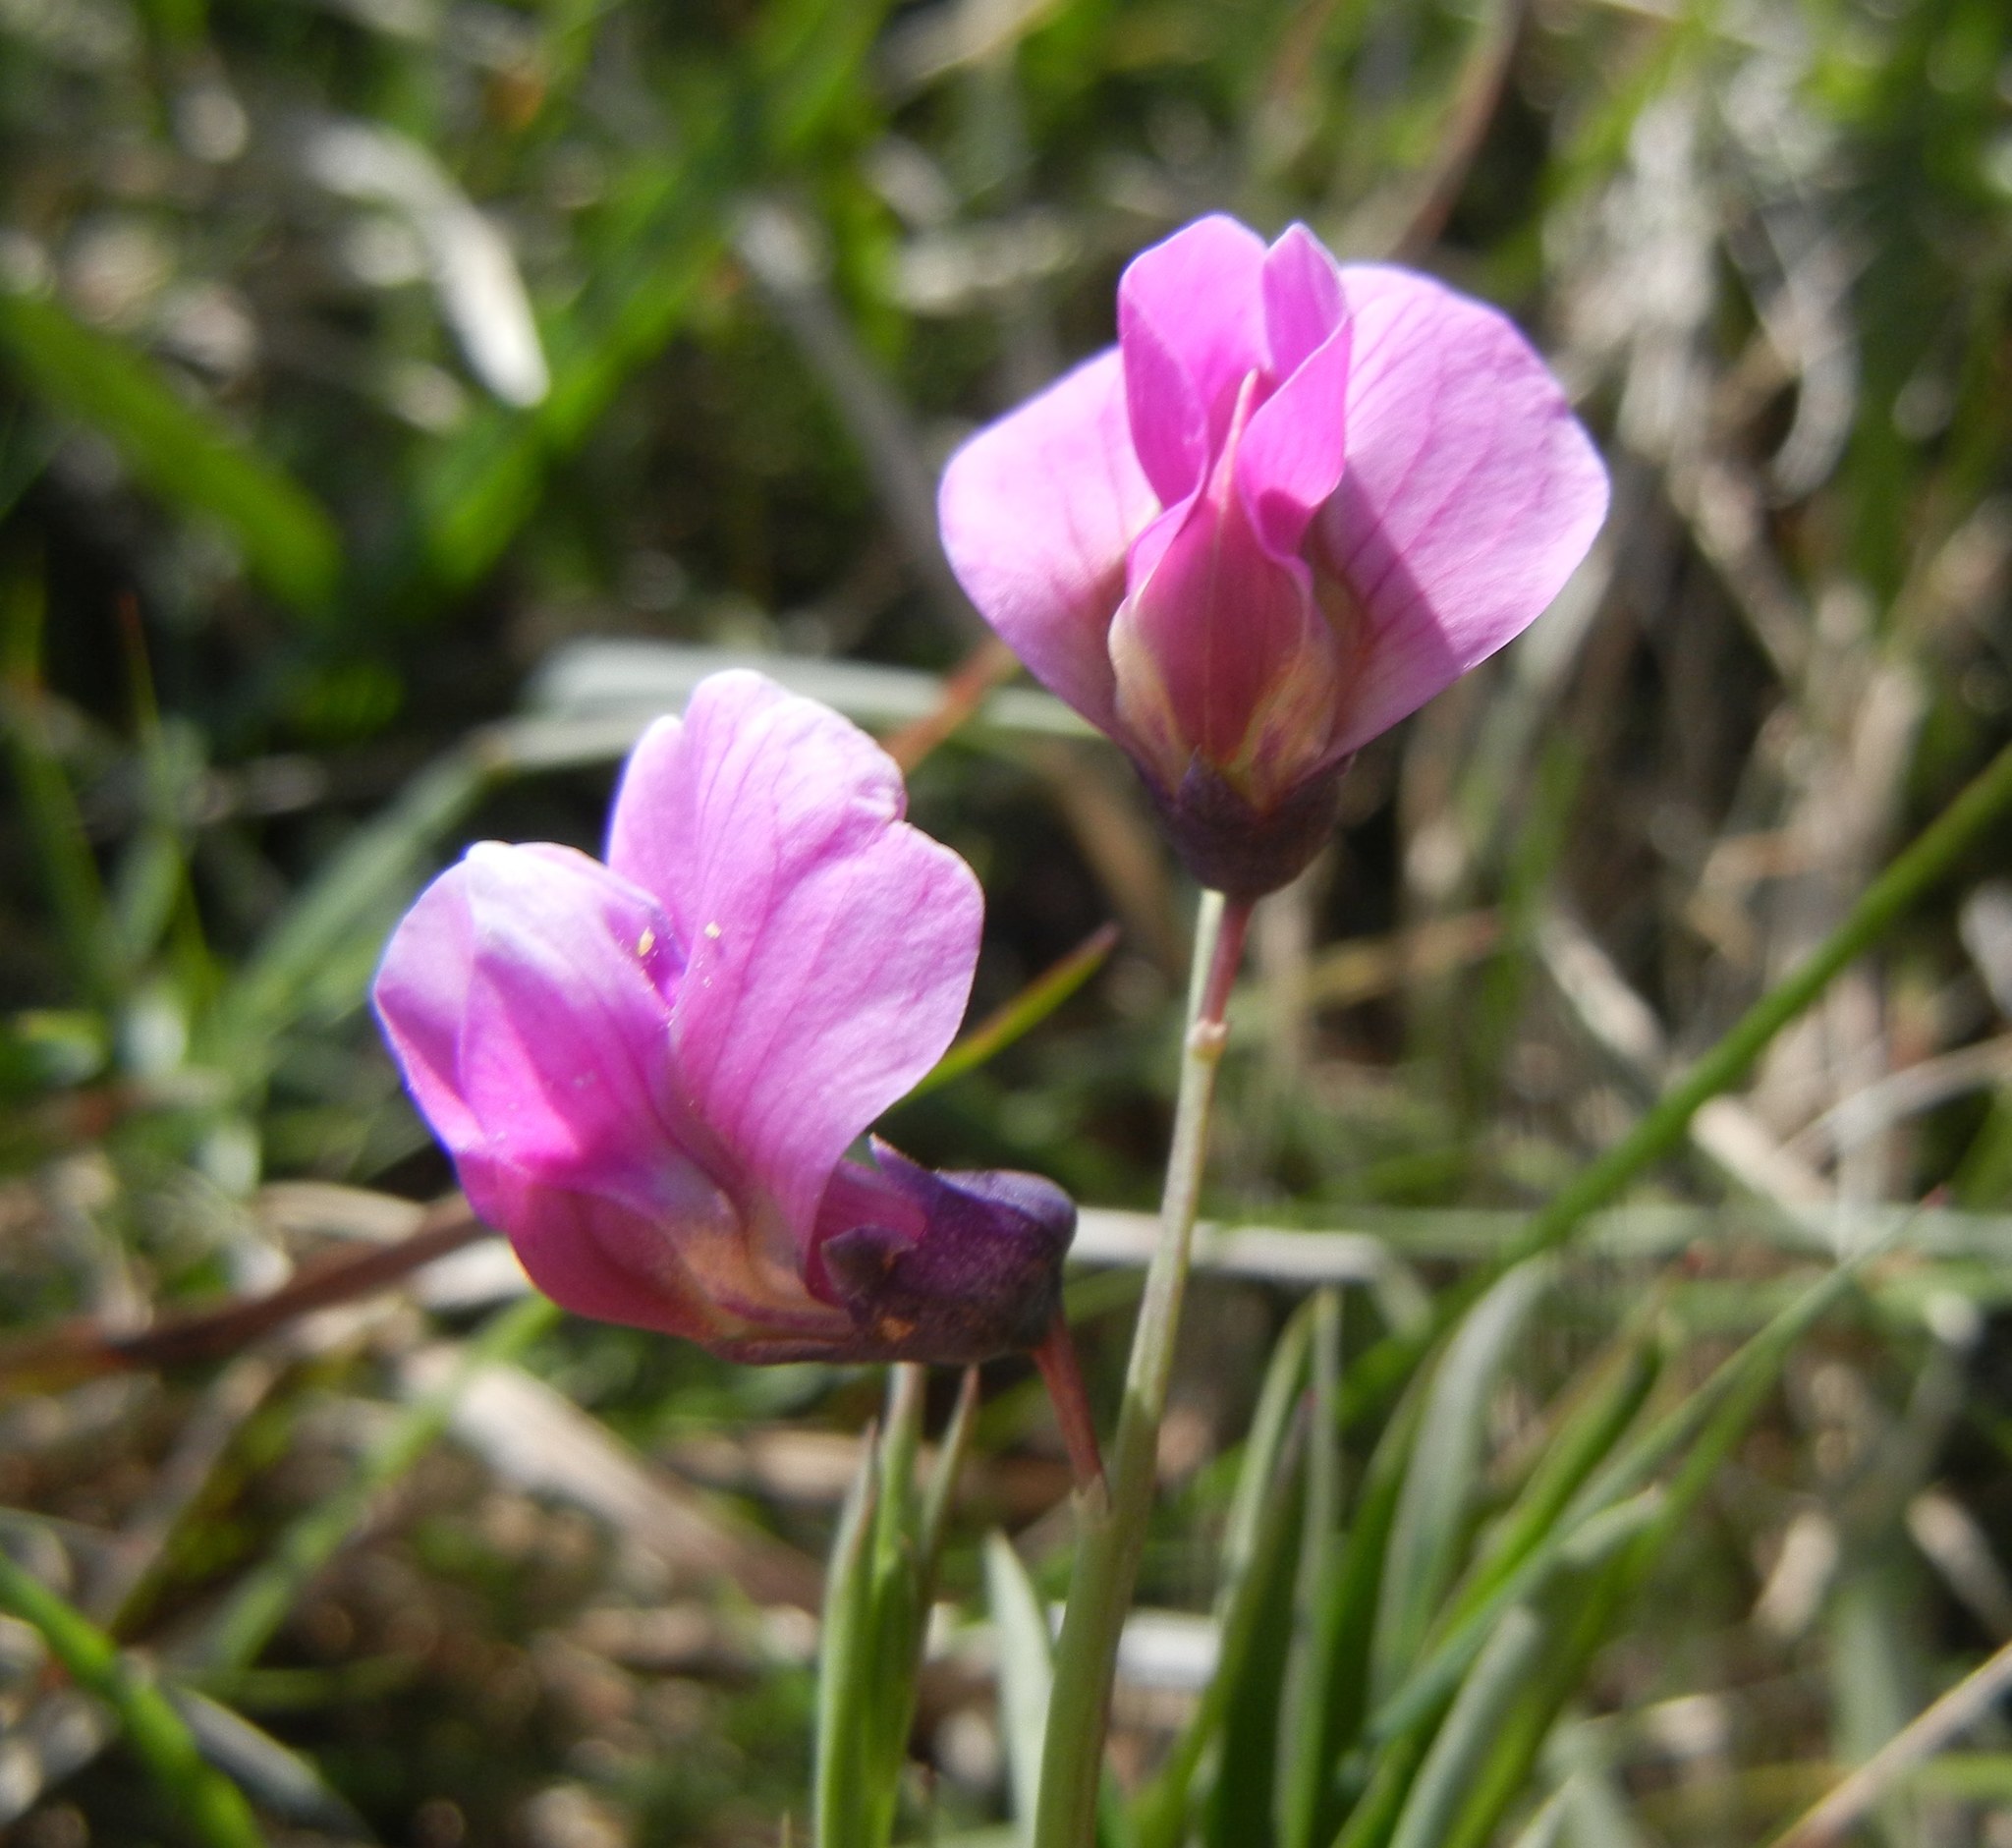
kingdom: Plantae
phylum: Tracheophyta
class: Magnoliopsida
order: Fabales
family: Fabaceae
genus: Lathyrus
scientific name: Lathyrus linifolius
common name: Bitter-vetch
